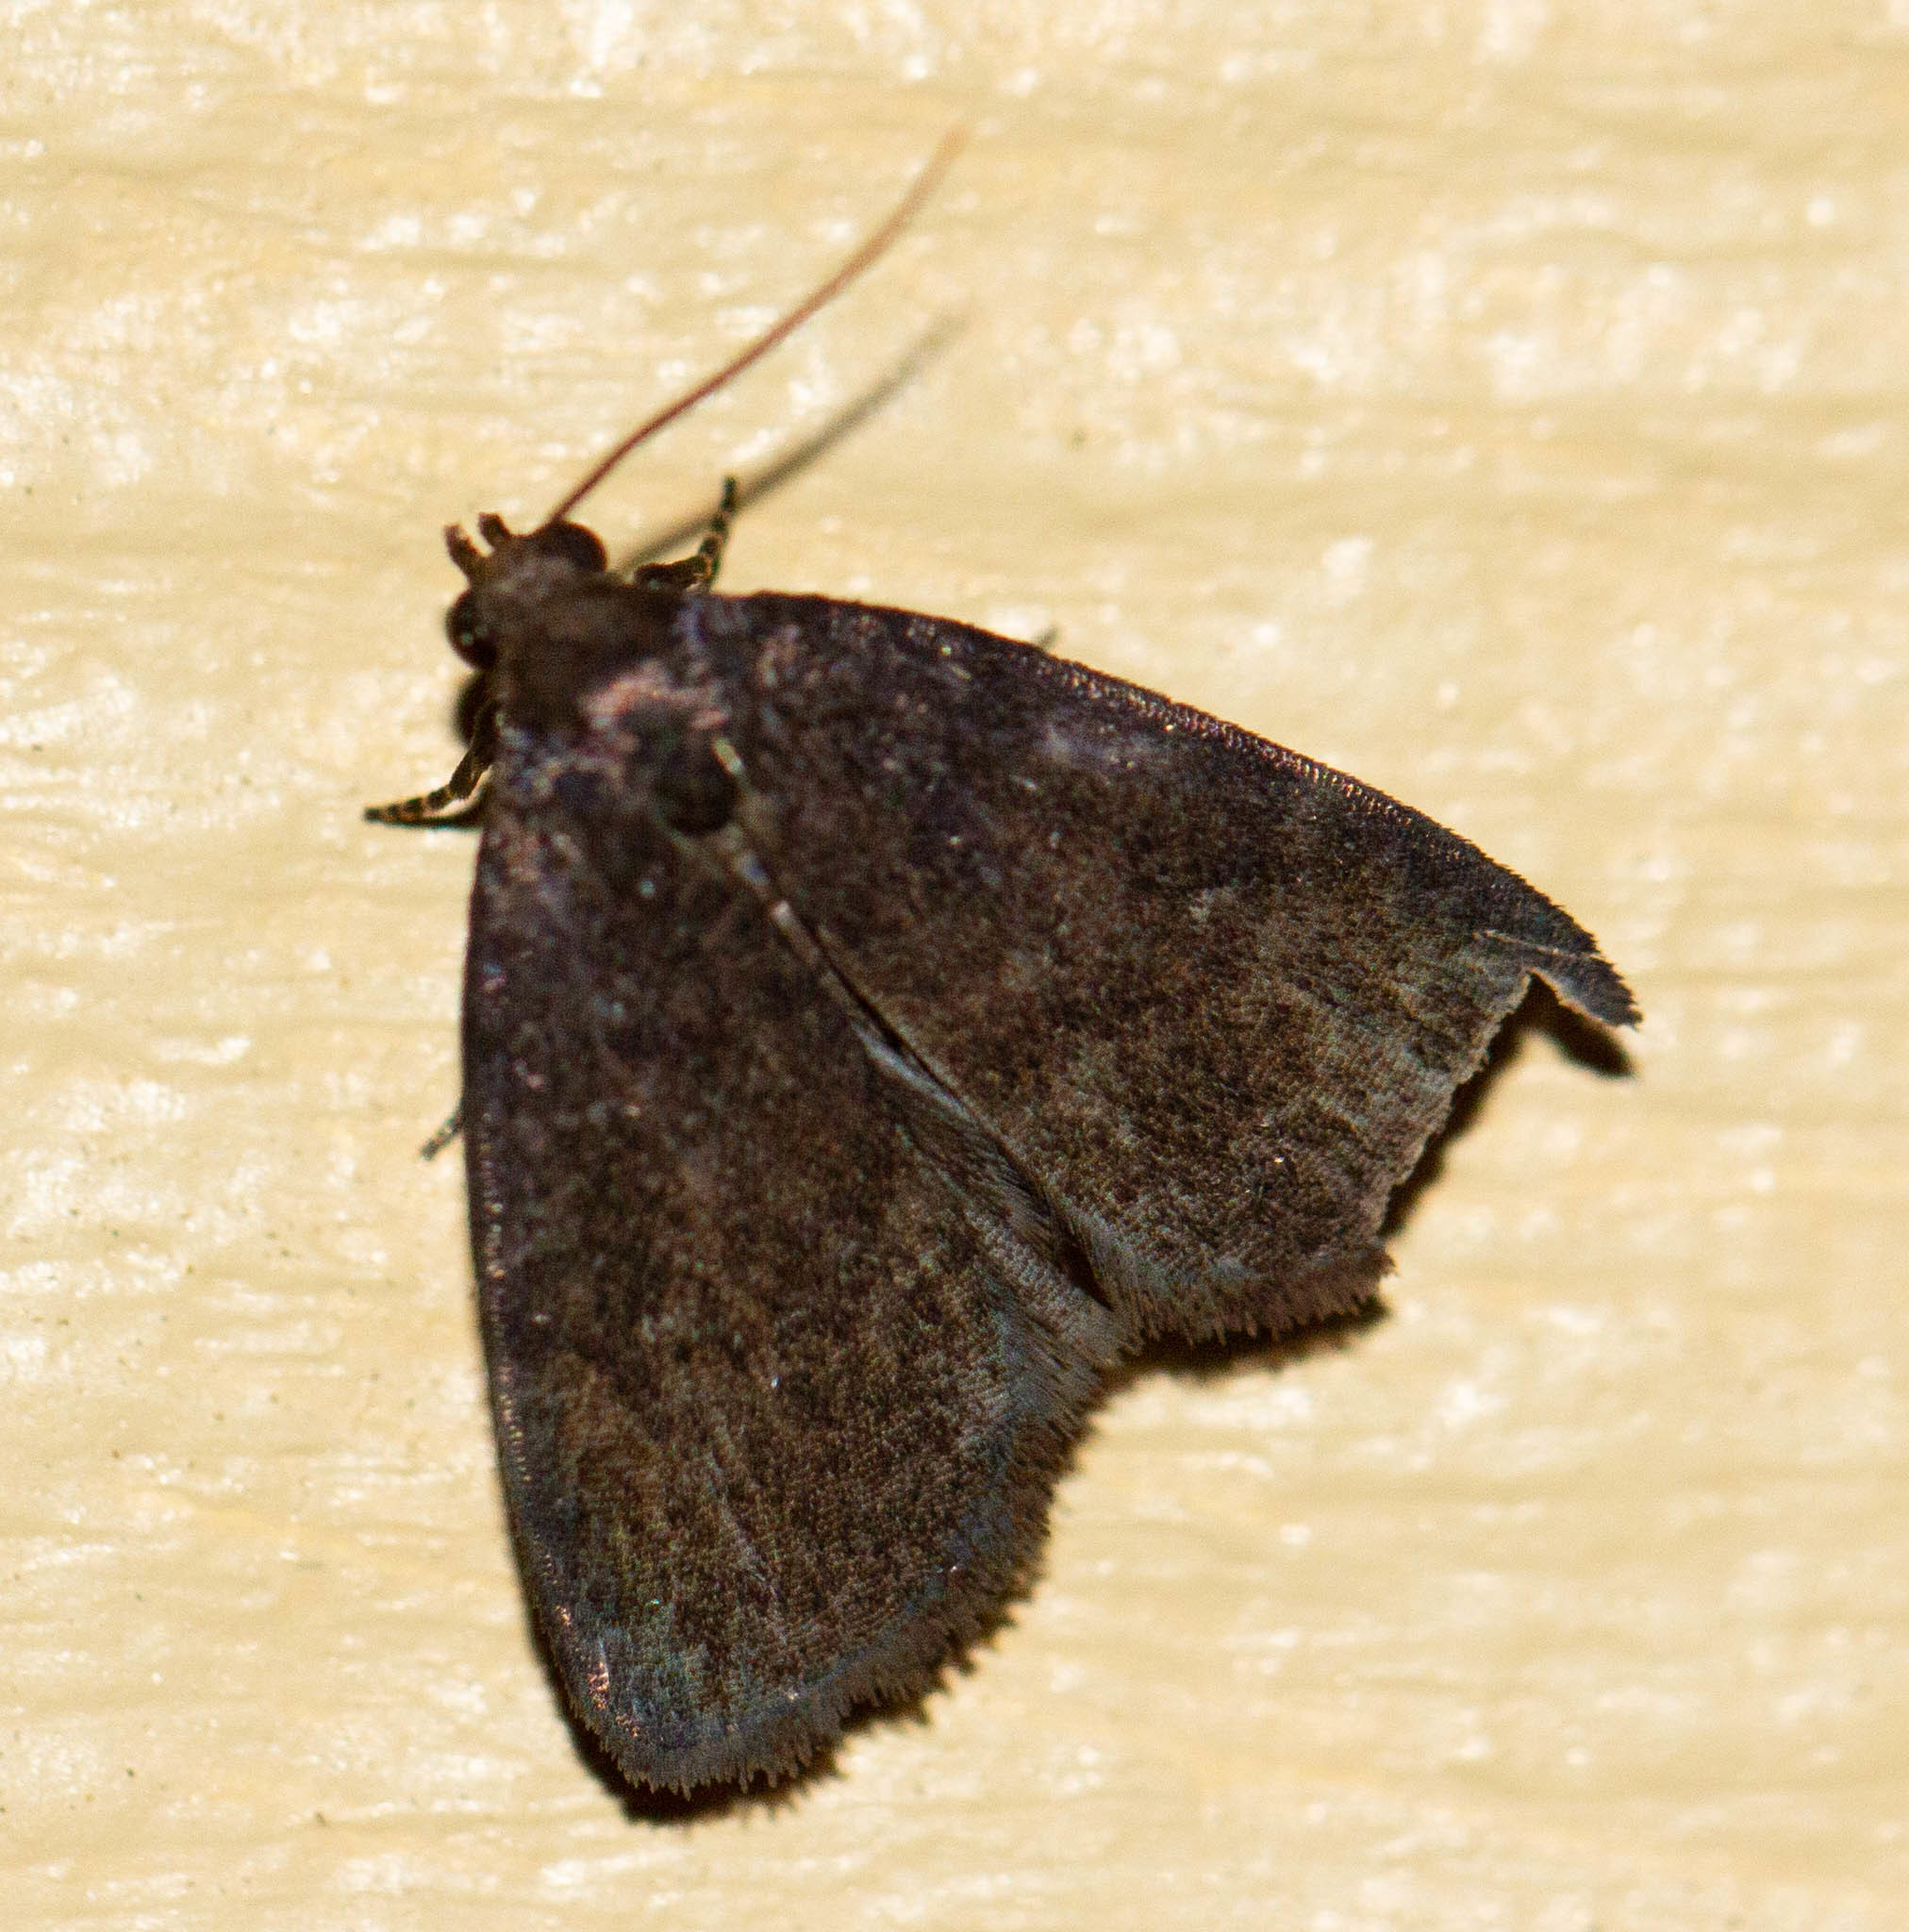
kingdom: Animalia
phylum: Arthropoda
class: Insecta
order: Lepidoptera
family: Erebidae
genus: Idia
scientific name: Idia rotundalis
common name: Rotund idia moth
